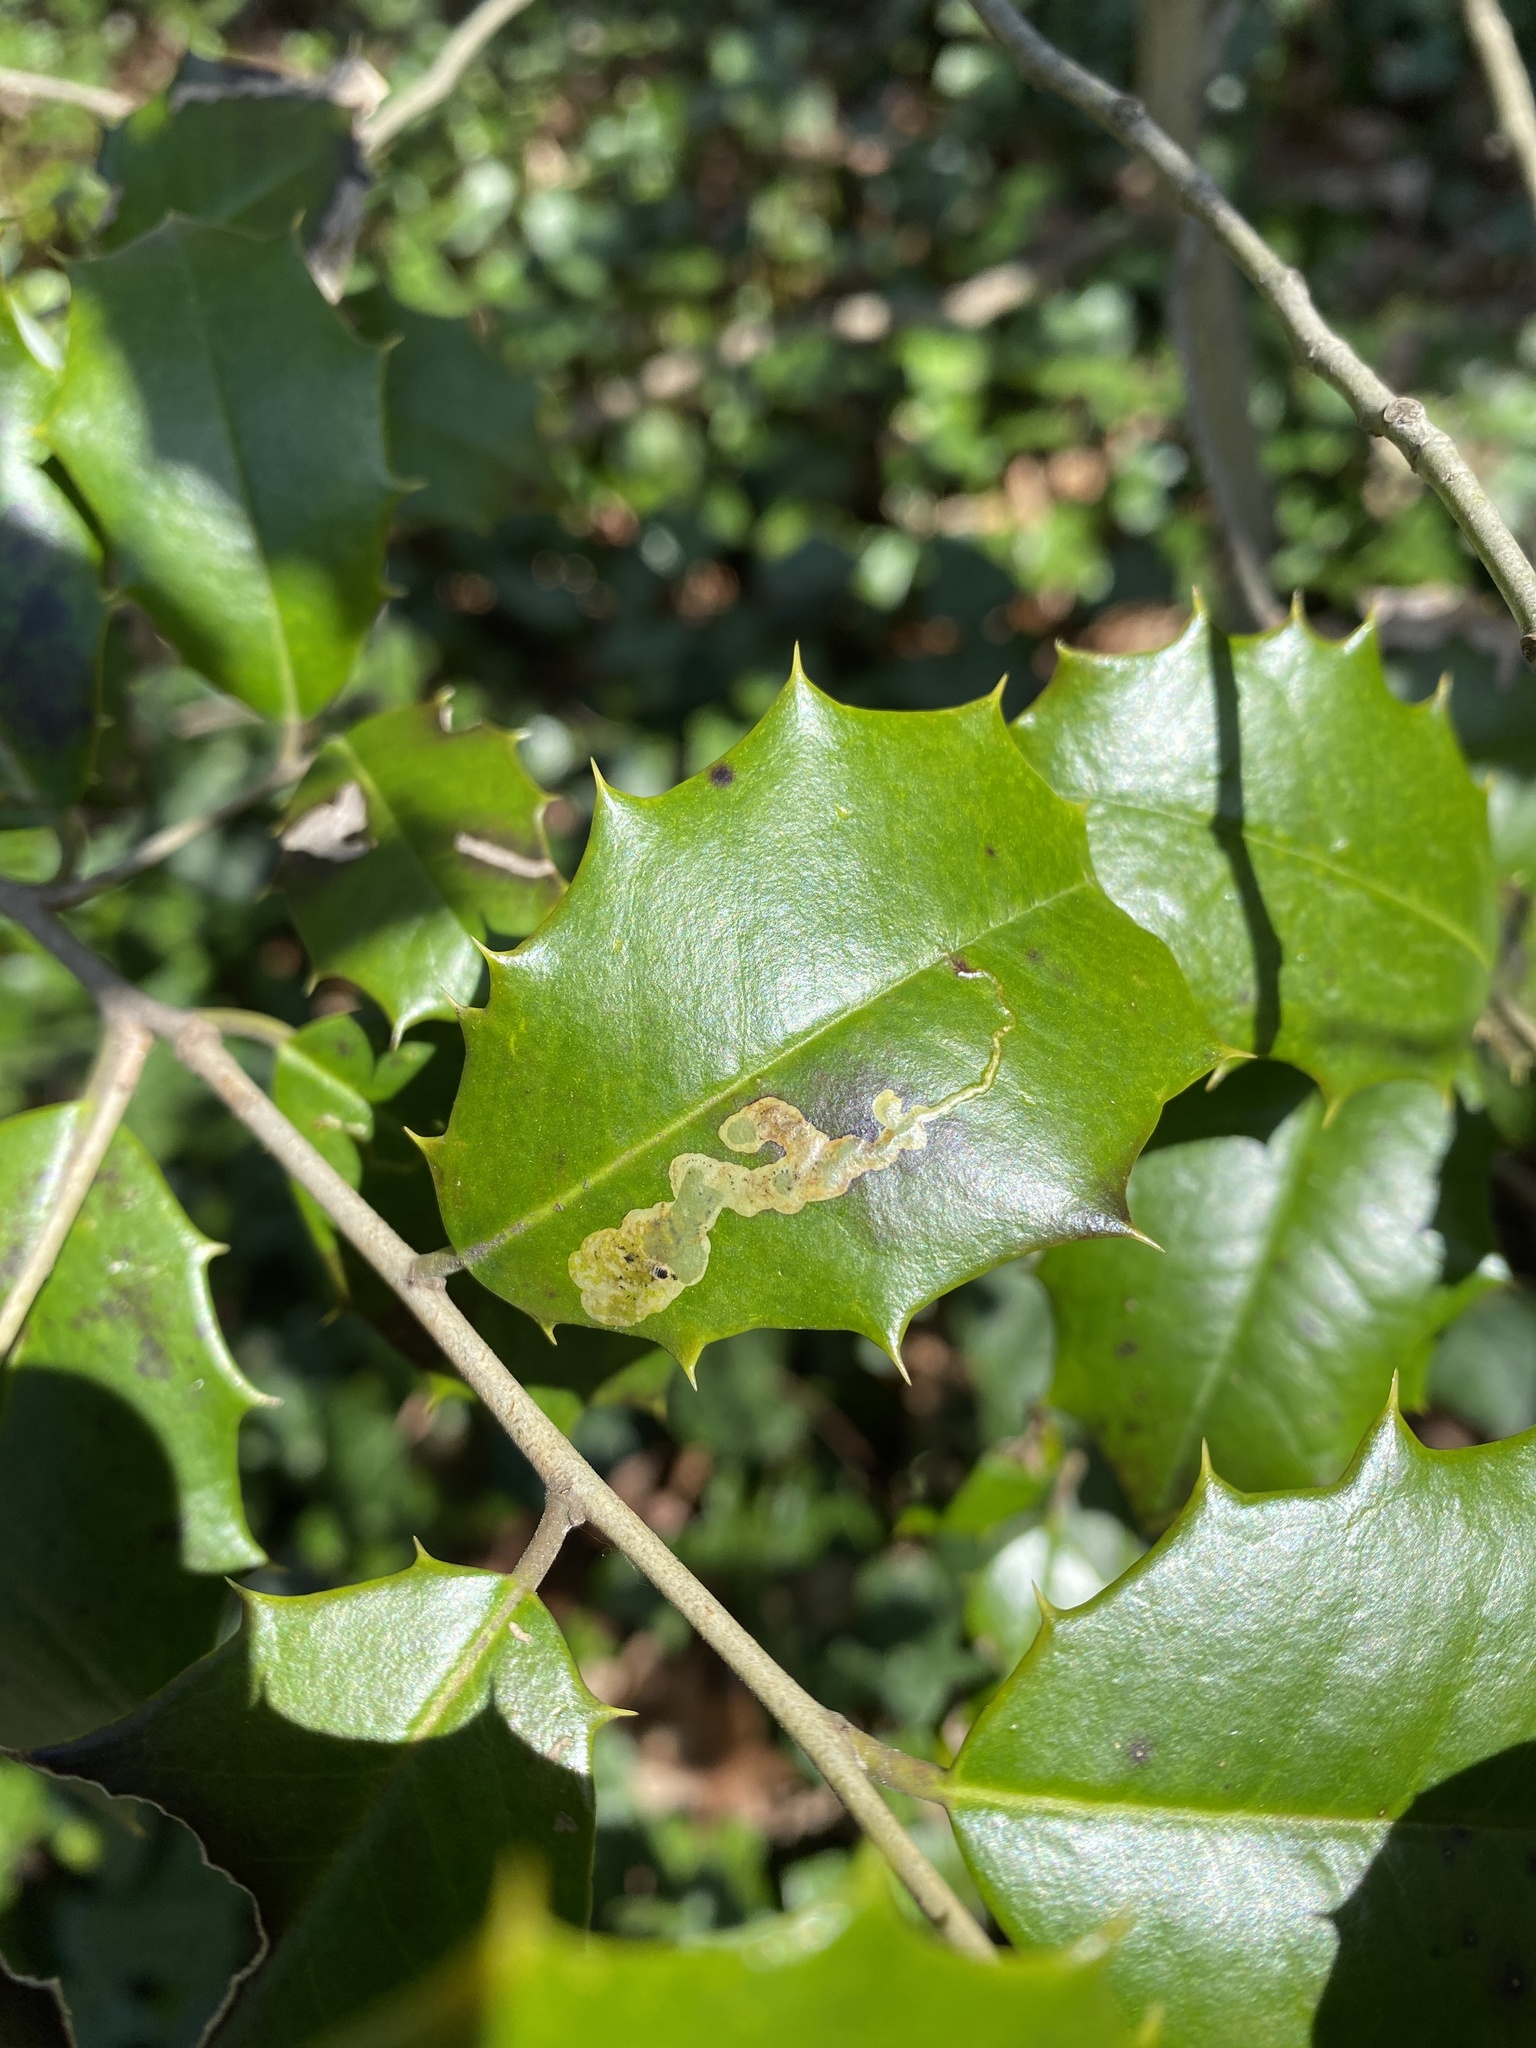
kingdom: Animalia
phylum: Arthropoda
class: Insecta
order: Diptera
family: Agromyzidae
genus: Phytomyza
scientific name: Phytomyza ilicicola
